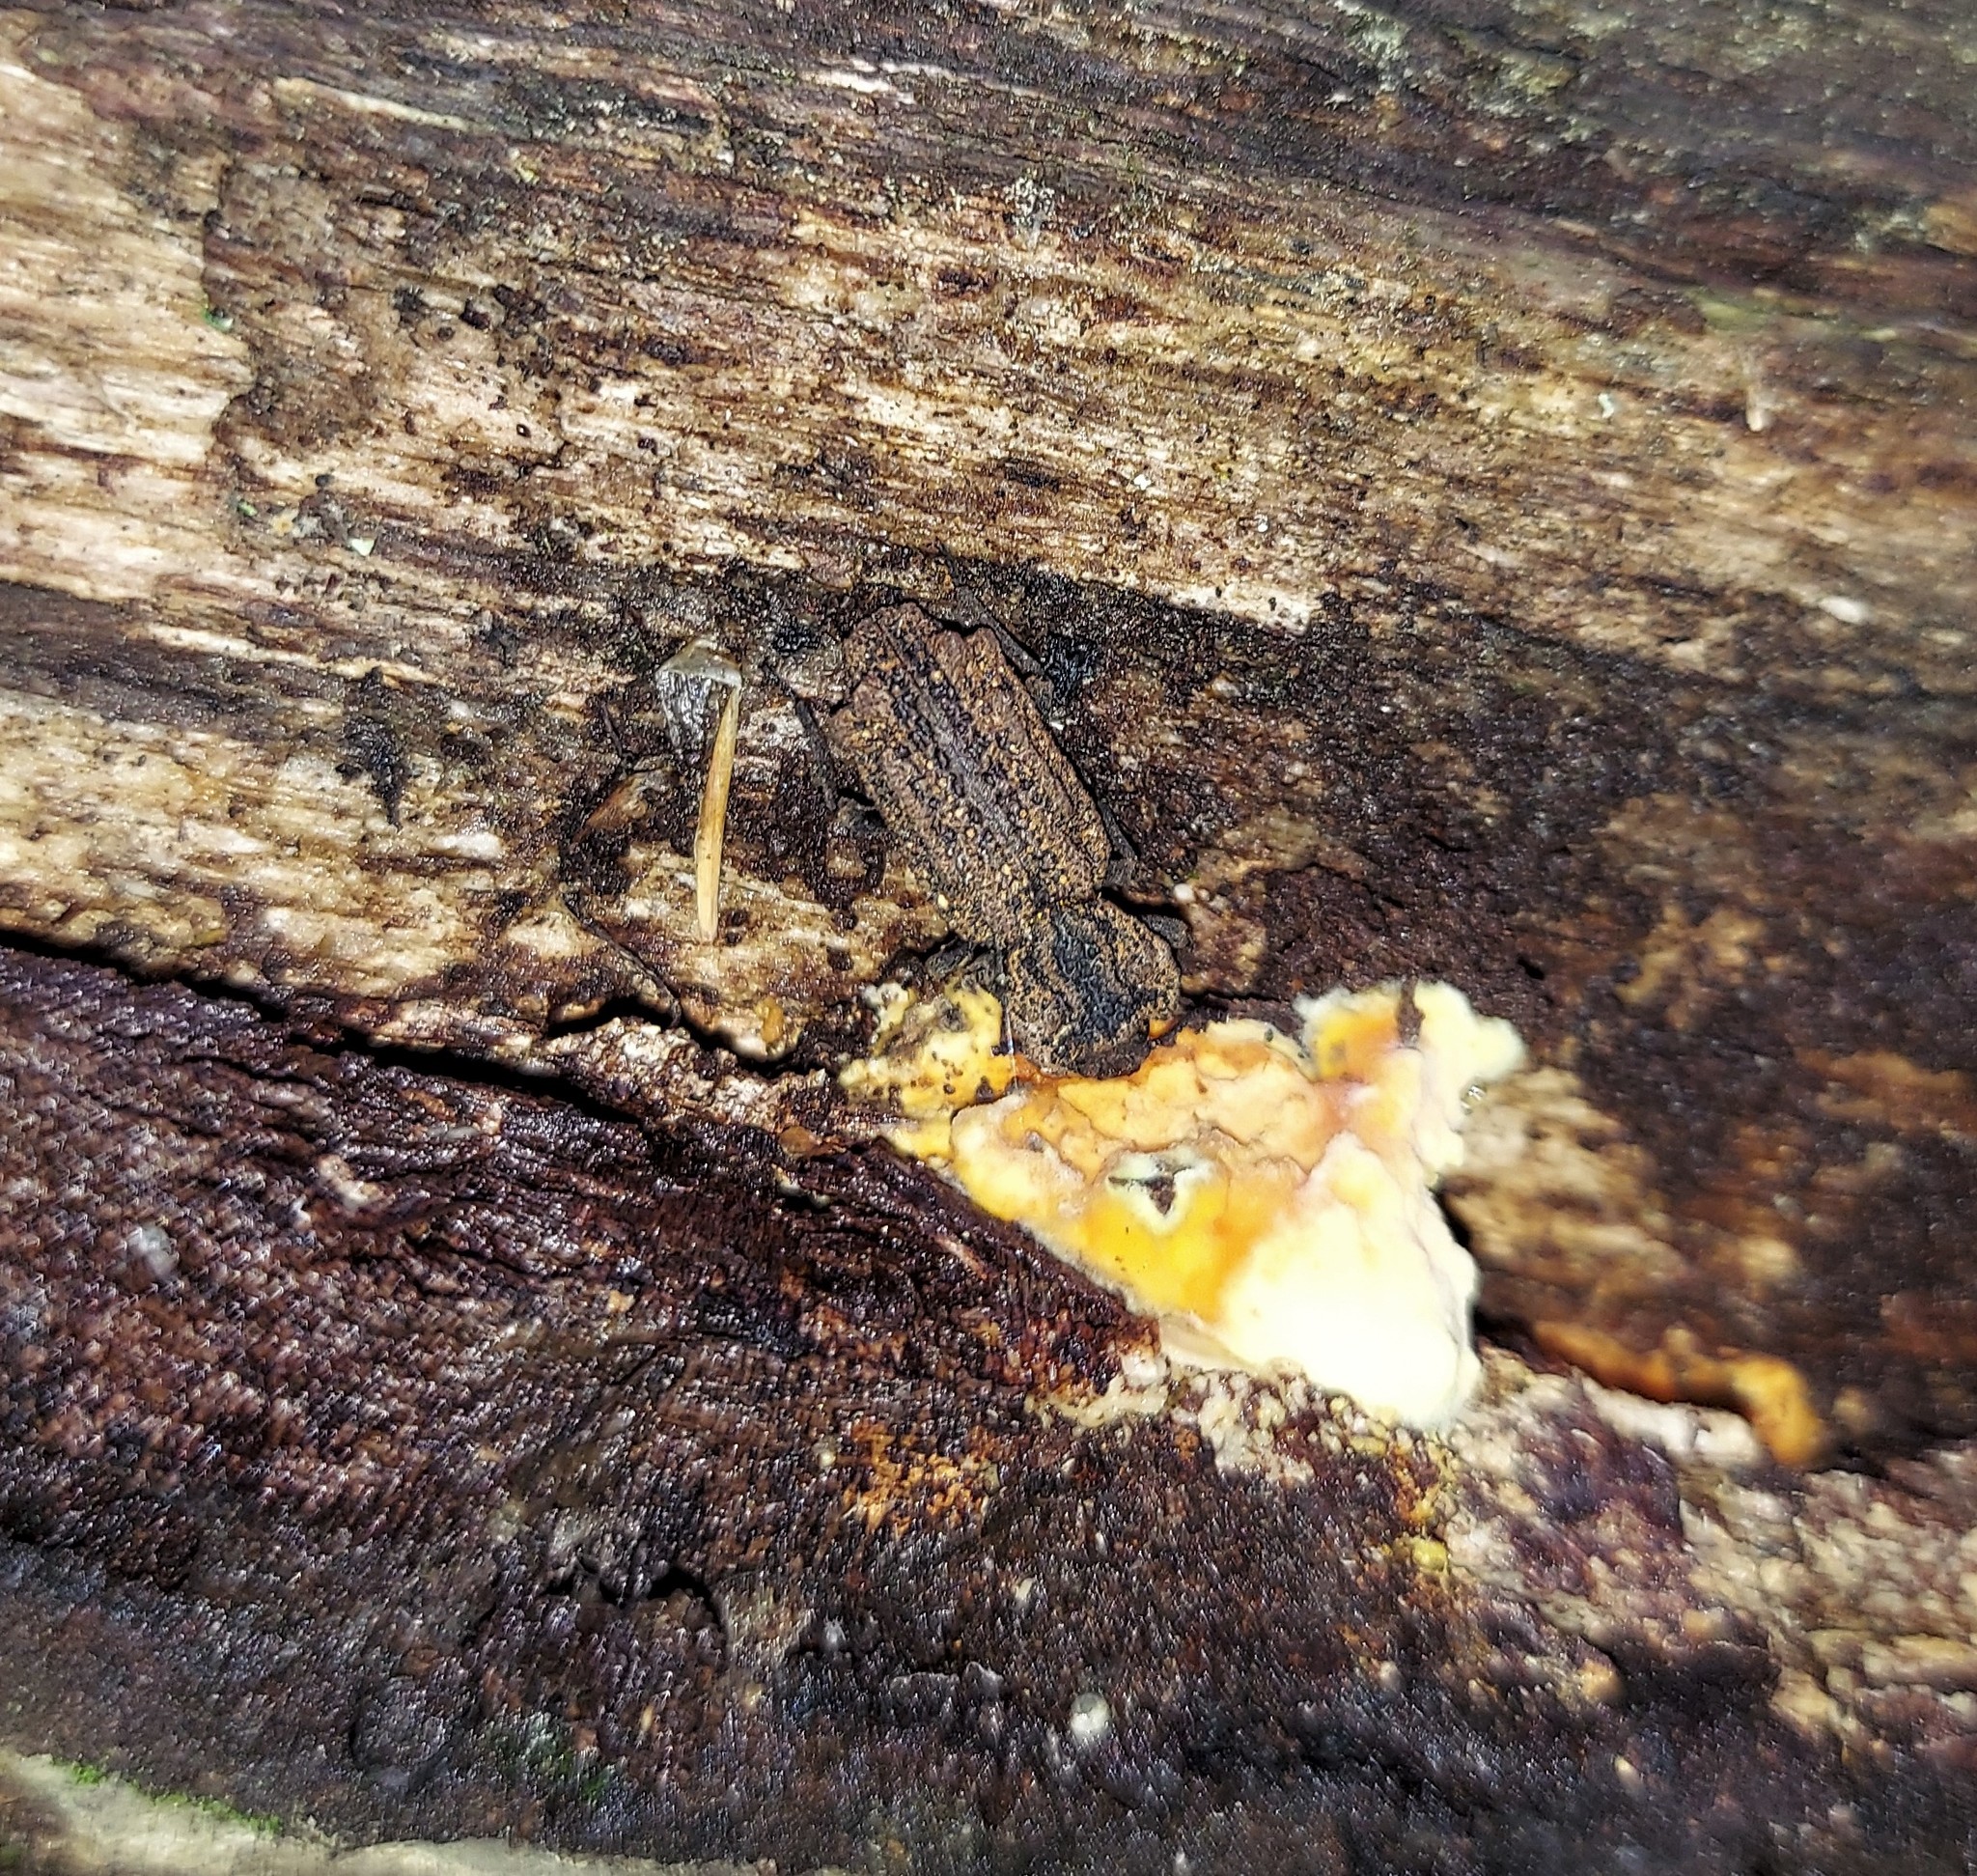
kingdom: Animalia
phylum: Arthropoda
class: Insecta
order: Coleoptera
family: Zopheridae
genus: Phellopsis
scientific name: Phellopsis obcordata
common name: Eastern ironclad beetle
